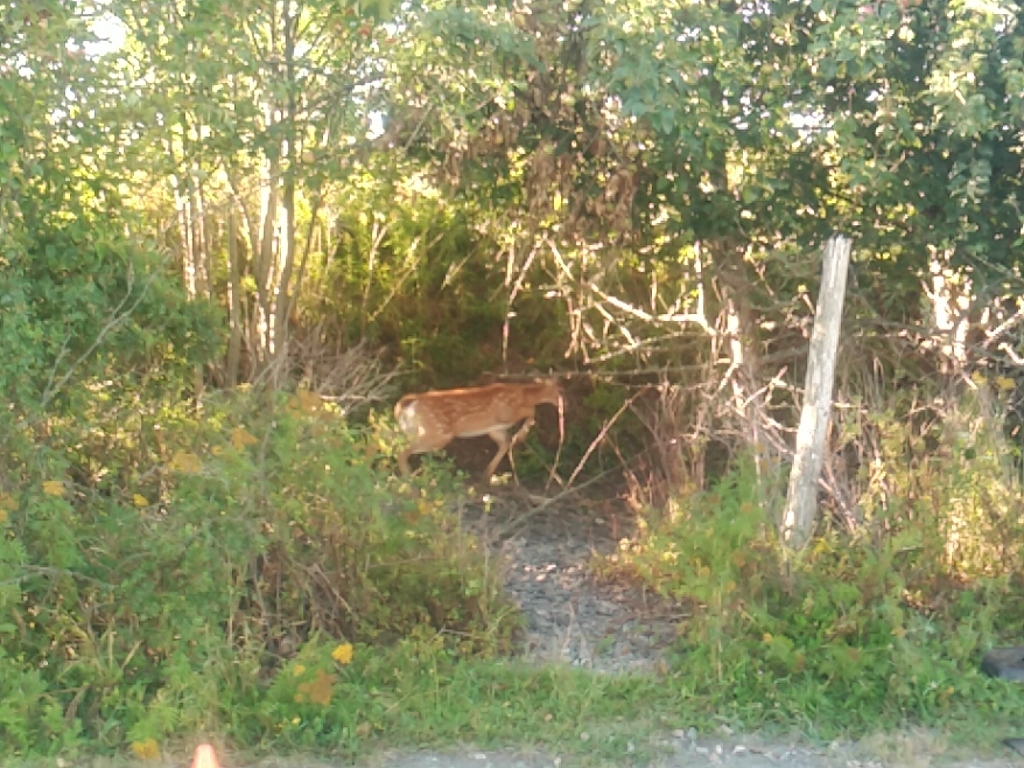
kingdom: Animalia
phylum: Chordata
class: Mammalia
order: Artiodactyla
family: Cervidae
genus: Odocoileus
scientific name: Odocoileus virginianus
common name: White-tailed deer
